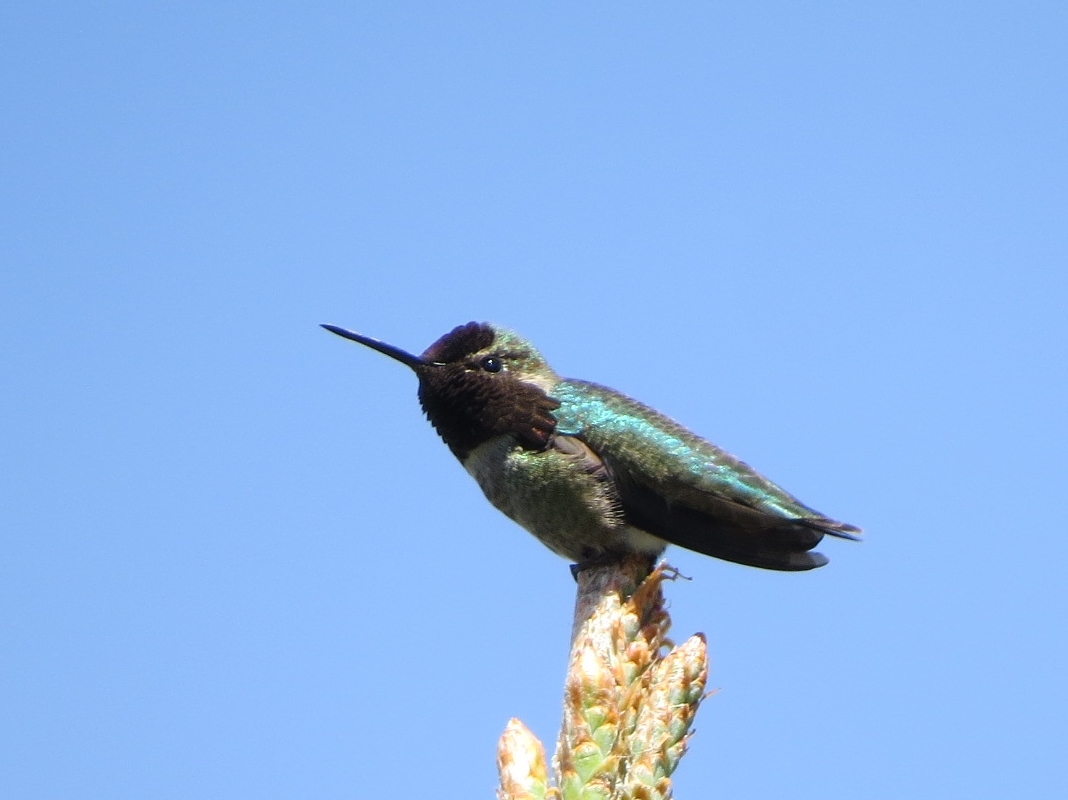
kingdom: Animalia
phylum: Chordata
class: Aves
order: Apodiformes
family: Trochilidae
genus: Calypte
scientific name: Calypte anna
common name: Anna's hummingbird
